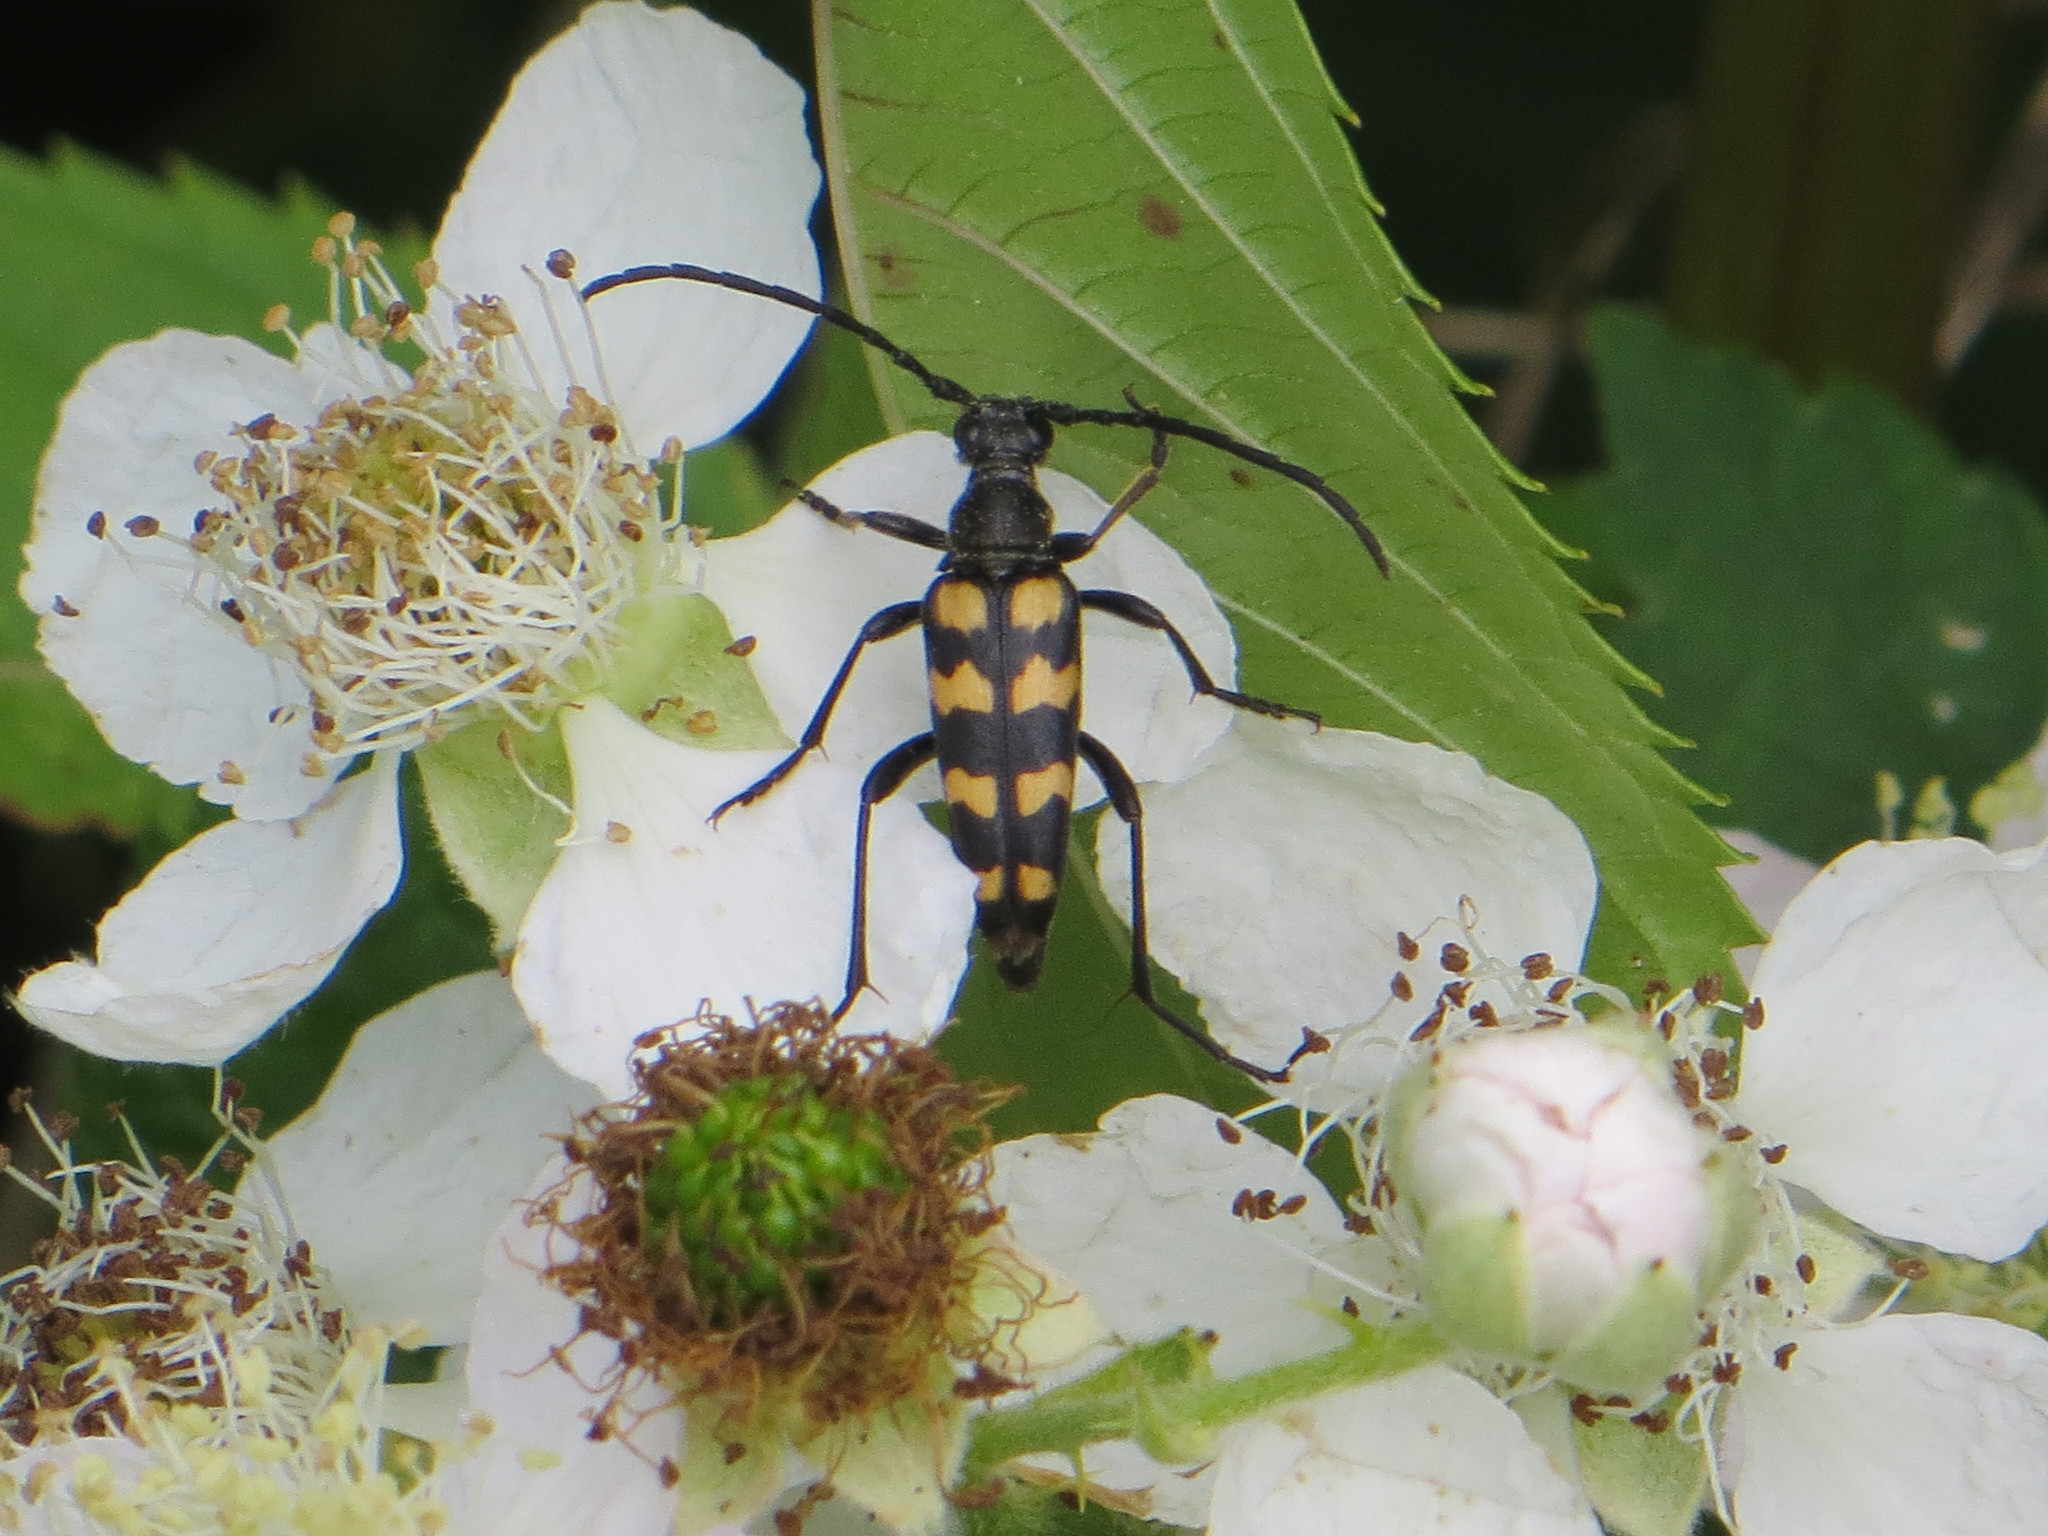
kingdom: Animalia
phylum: Arthropoda
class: Insecta
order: Coleoptera
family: Cerambycidae
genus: Leptura
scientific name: Leptura quadrifasciata
